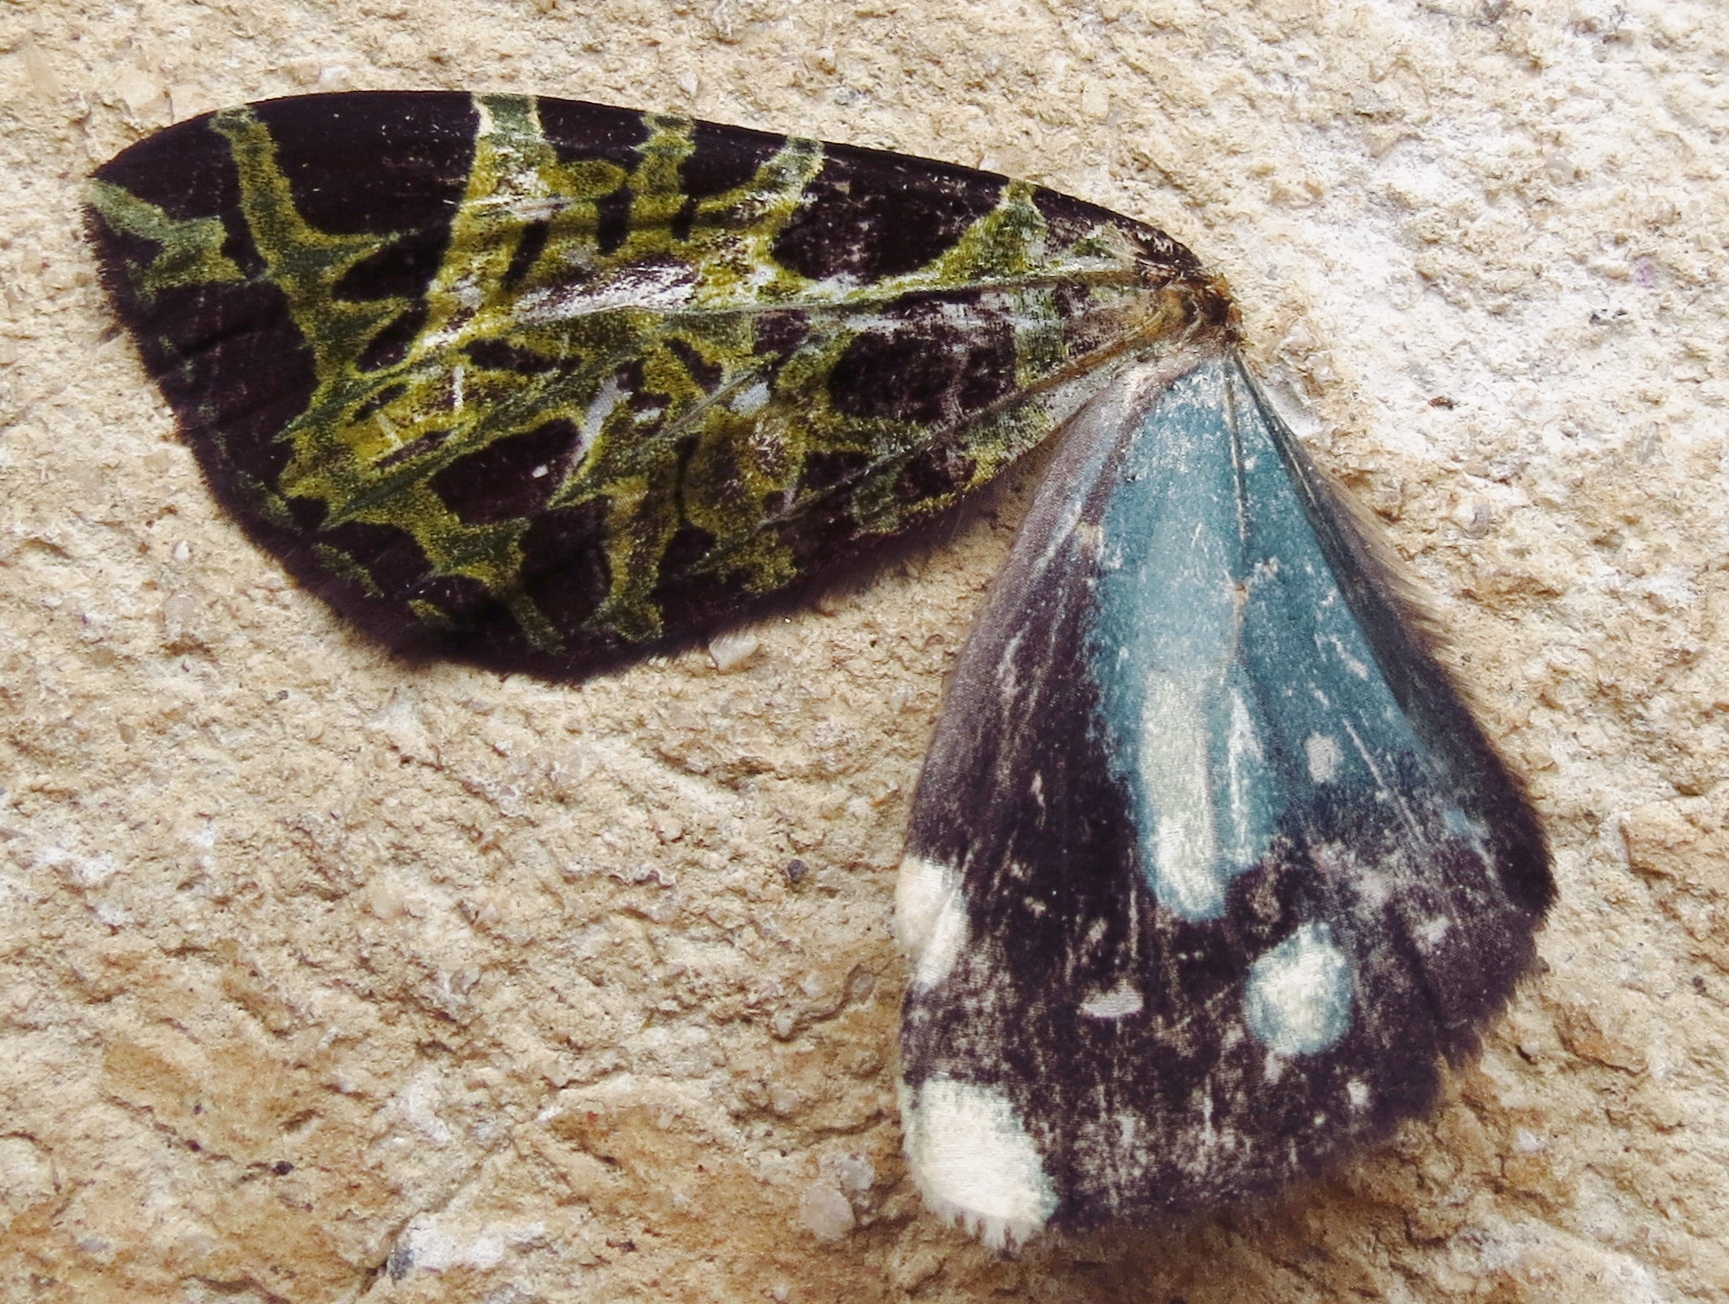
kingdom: Animalia
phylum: Arthropoda
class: Insecta
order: Lepidoptera
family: Geometridae
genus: Erebochlora
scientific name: Erebochlora tesserulata
